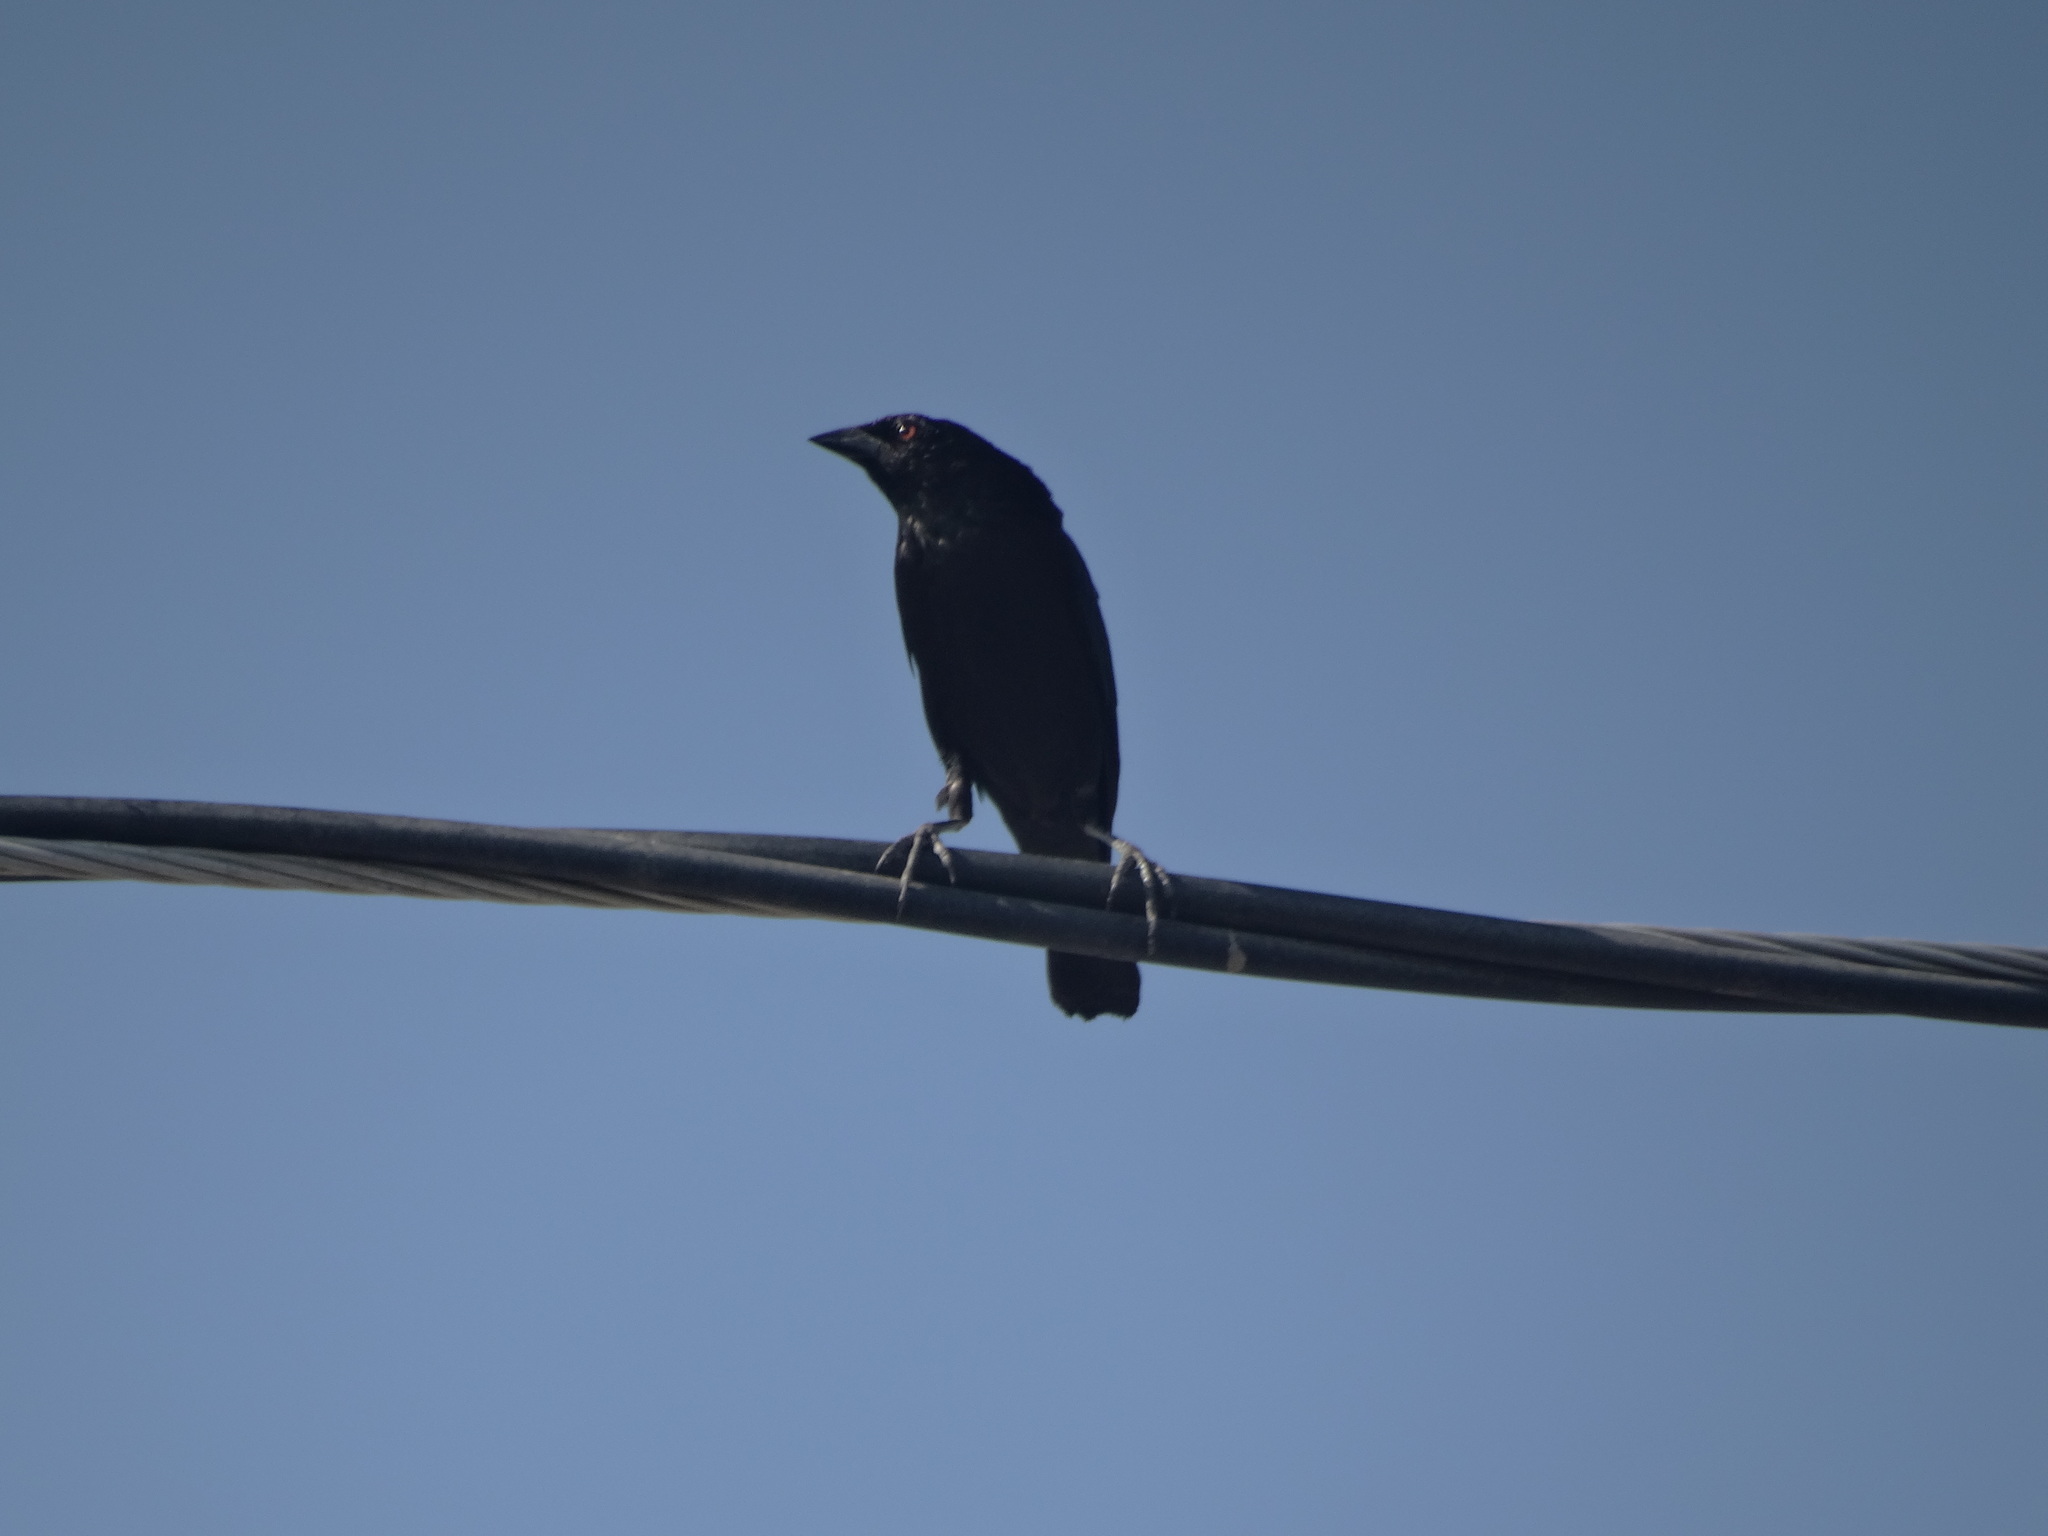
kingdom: Animalia
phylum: Chordata
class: Aves
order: Passeriformes
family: Icteridae
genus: Molothrus
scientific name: Molothrus aeneus
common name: Bronzed cowbird
